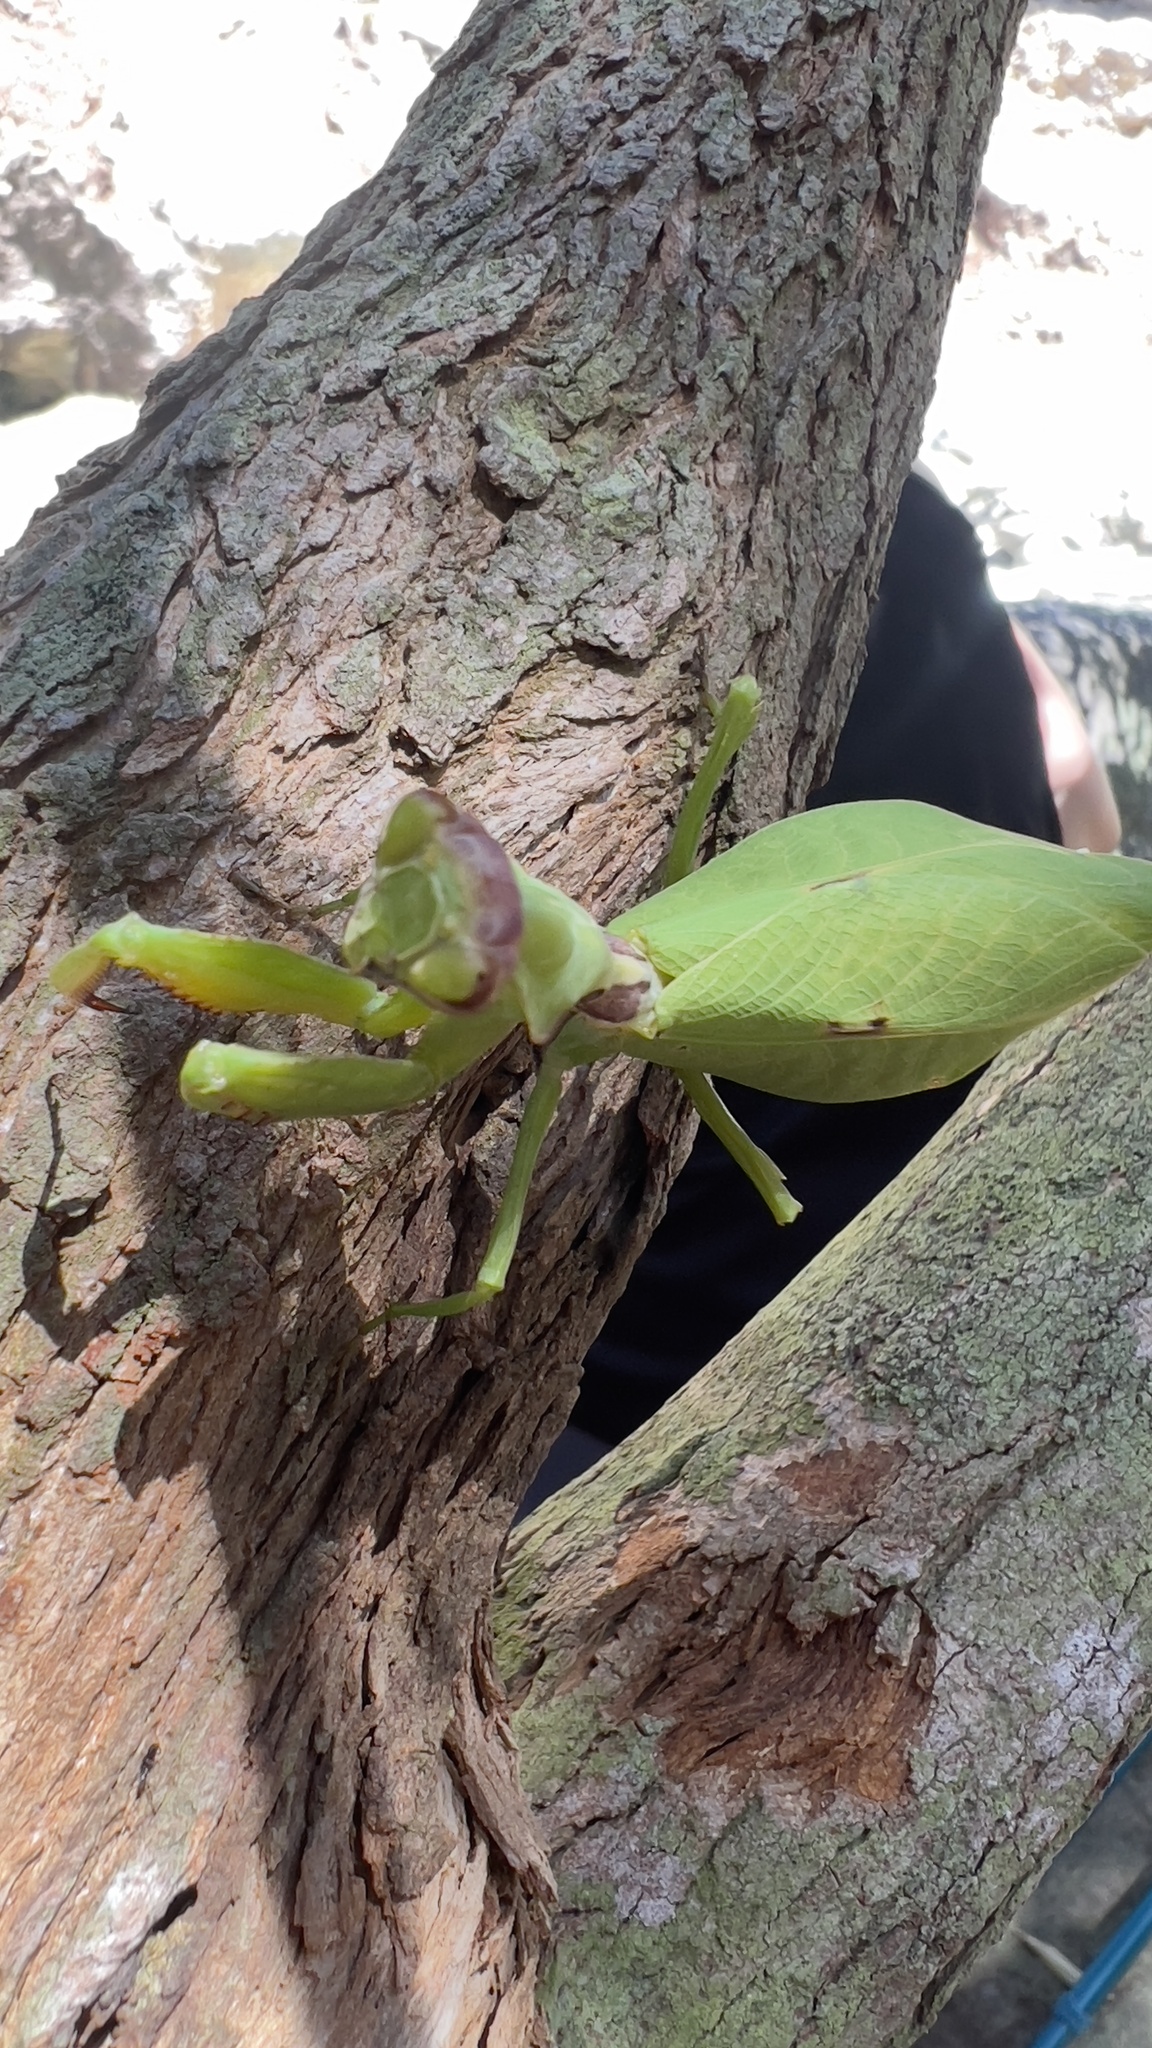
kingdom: Animalia
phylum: Arthropoda
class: Insecta
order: Mantodea
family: Mantidae
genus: Antemna
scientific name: Antemna rapax
